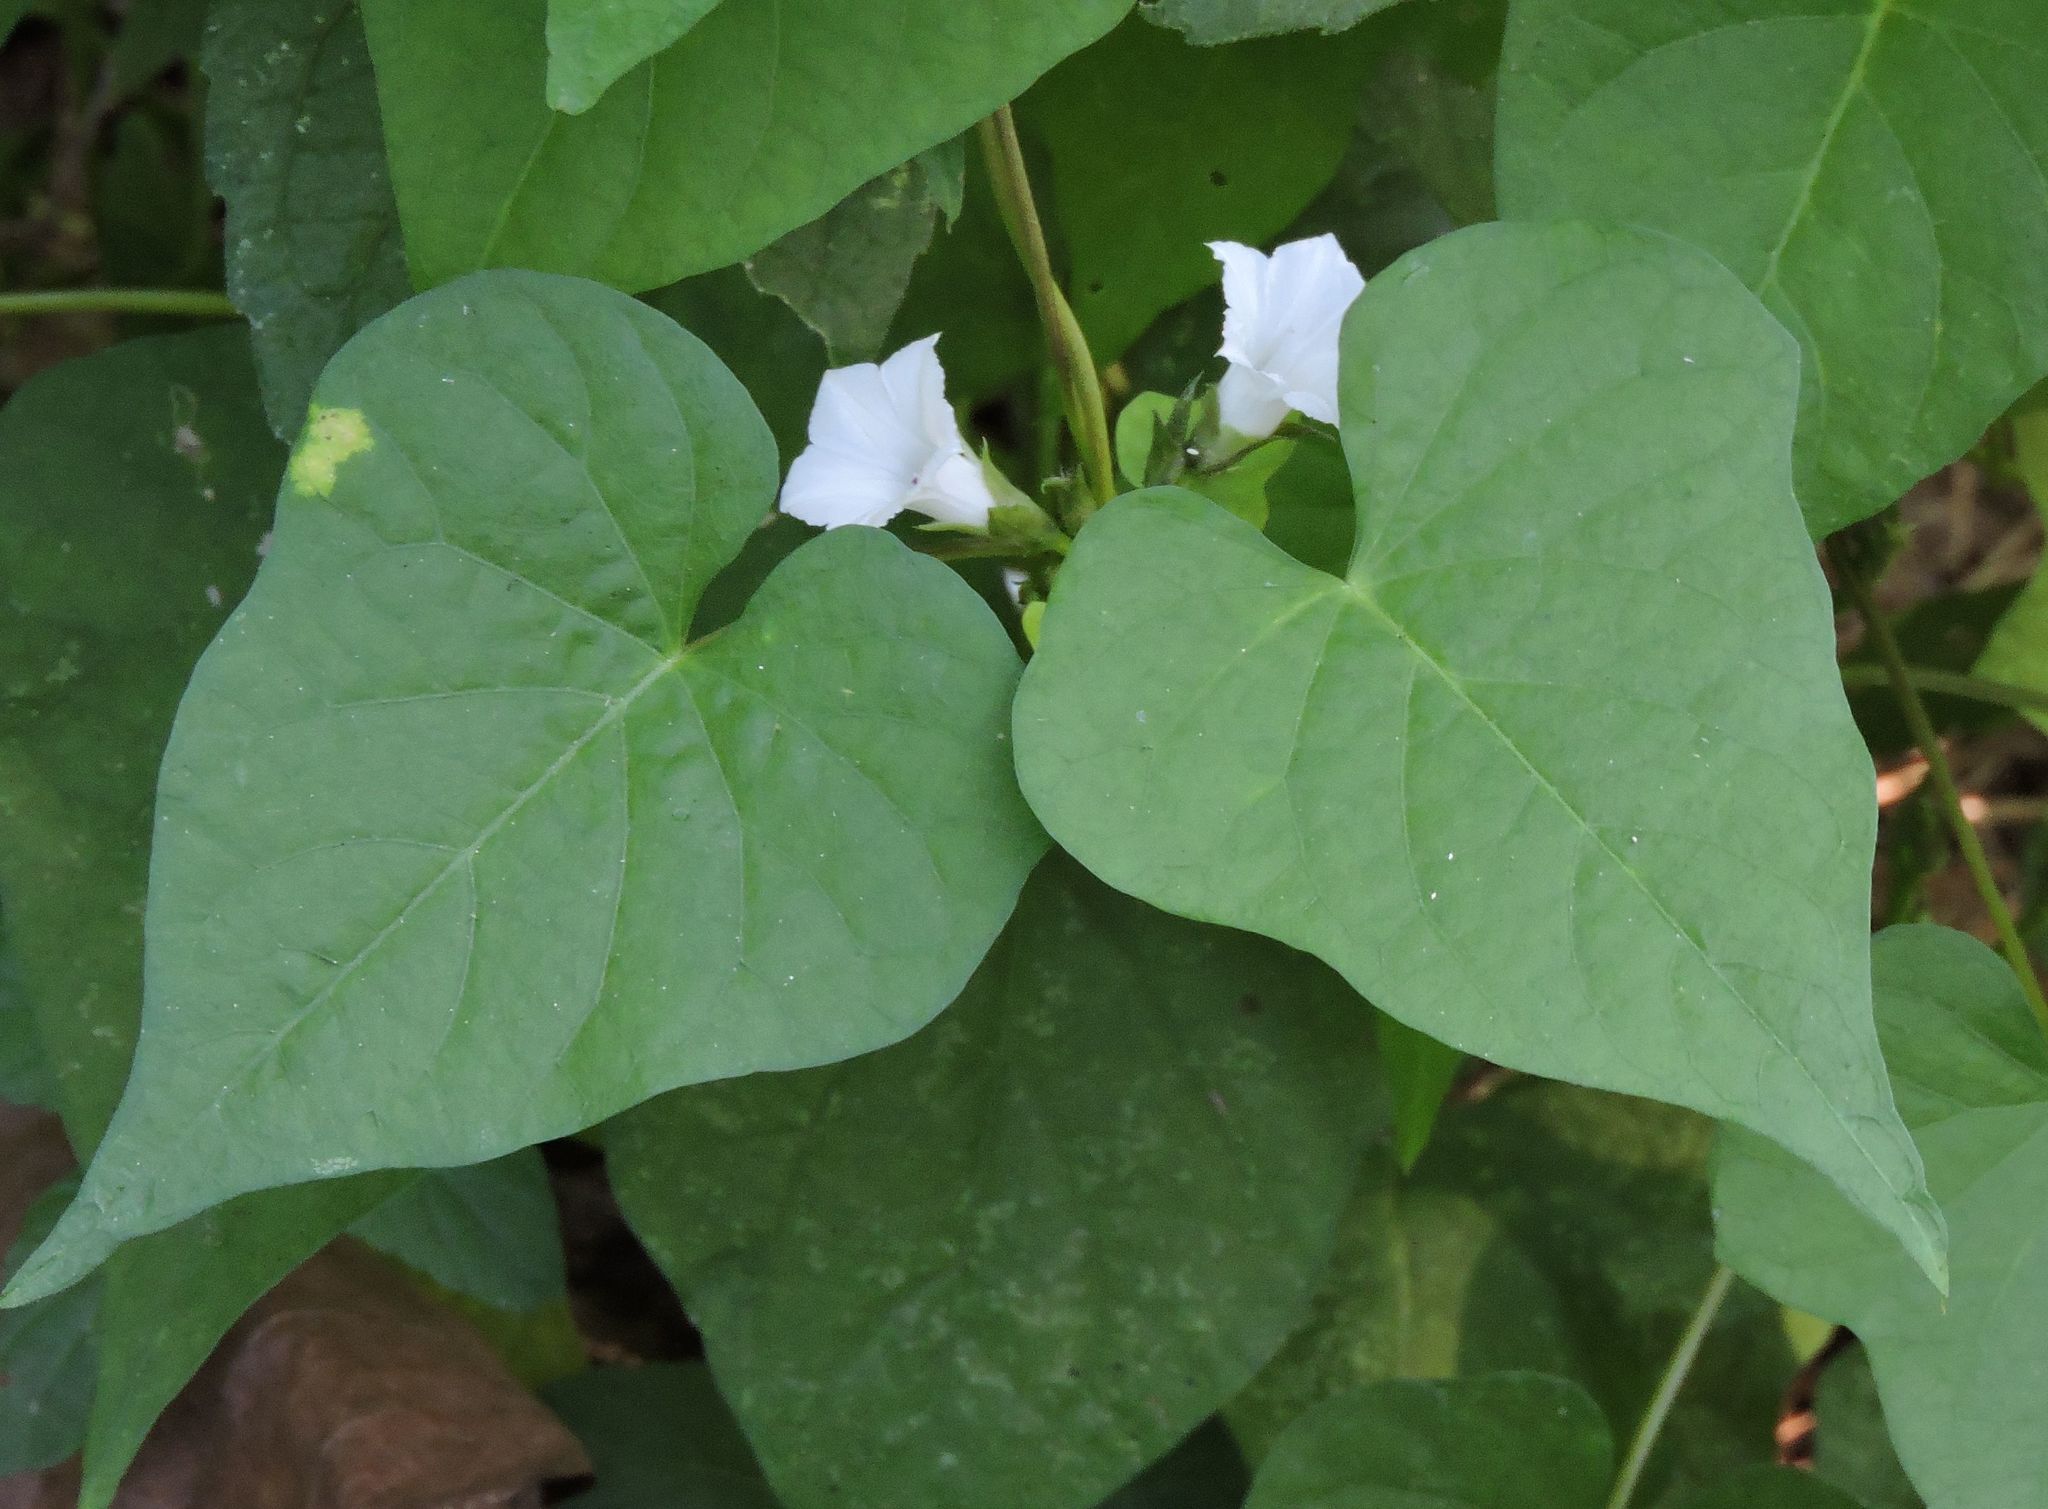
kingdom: Plantae
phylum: Tracheophyta
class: Magnoliopsida
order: Solanales
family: Convolvulaceae
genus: Ipomoea
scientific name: Ipomoea lacunosa
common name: White morning-glory
